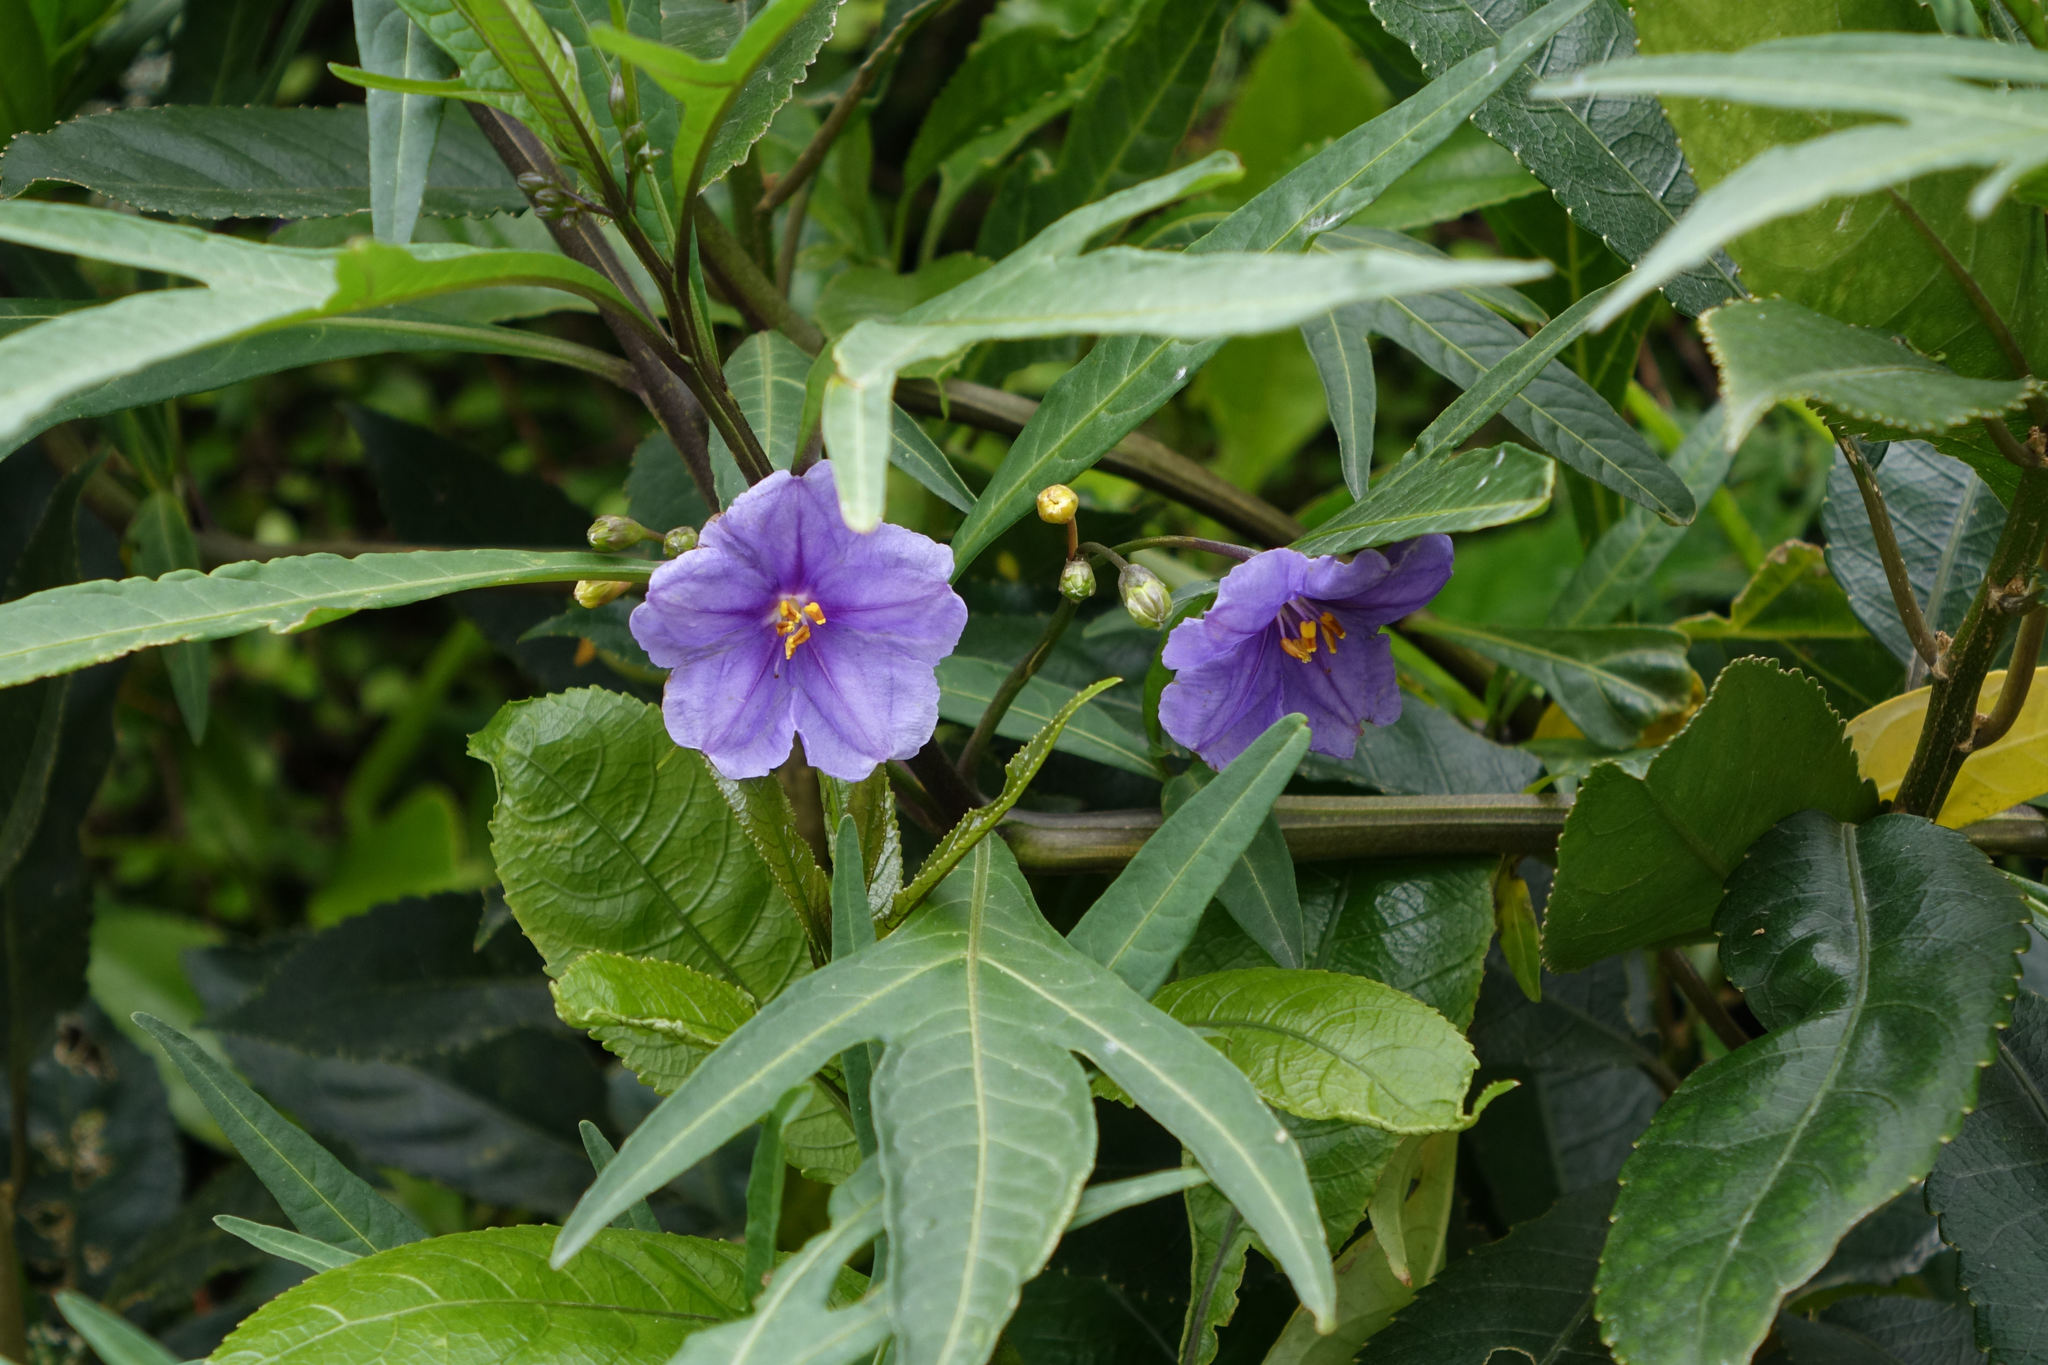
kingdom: Plantae
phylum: Tracheophyta
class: Magnoliopsida
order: Solanales
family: Solanaceae
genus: Solanum
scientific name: Solanum laciniatum
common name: Kangaroo-apple
